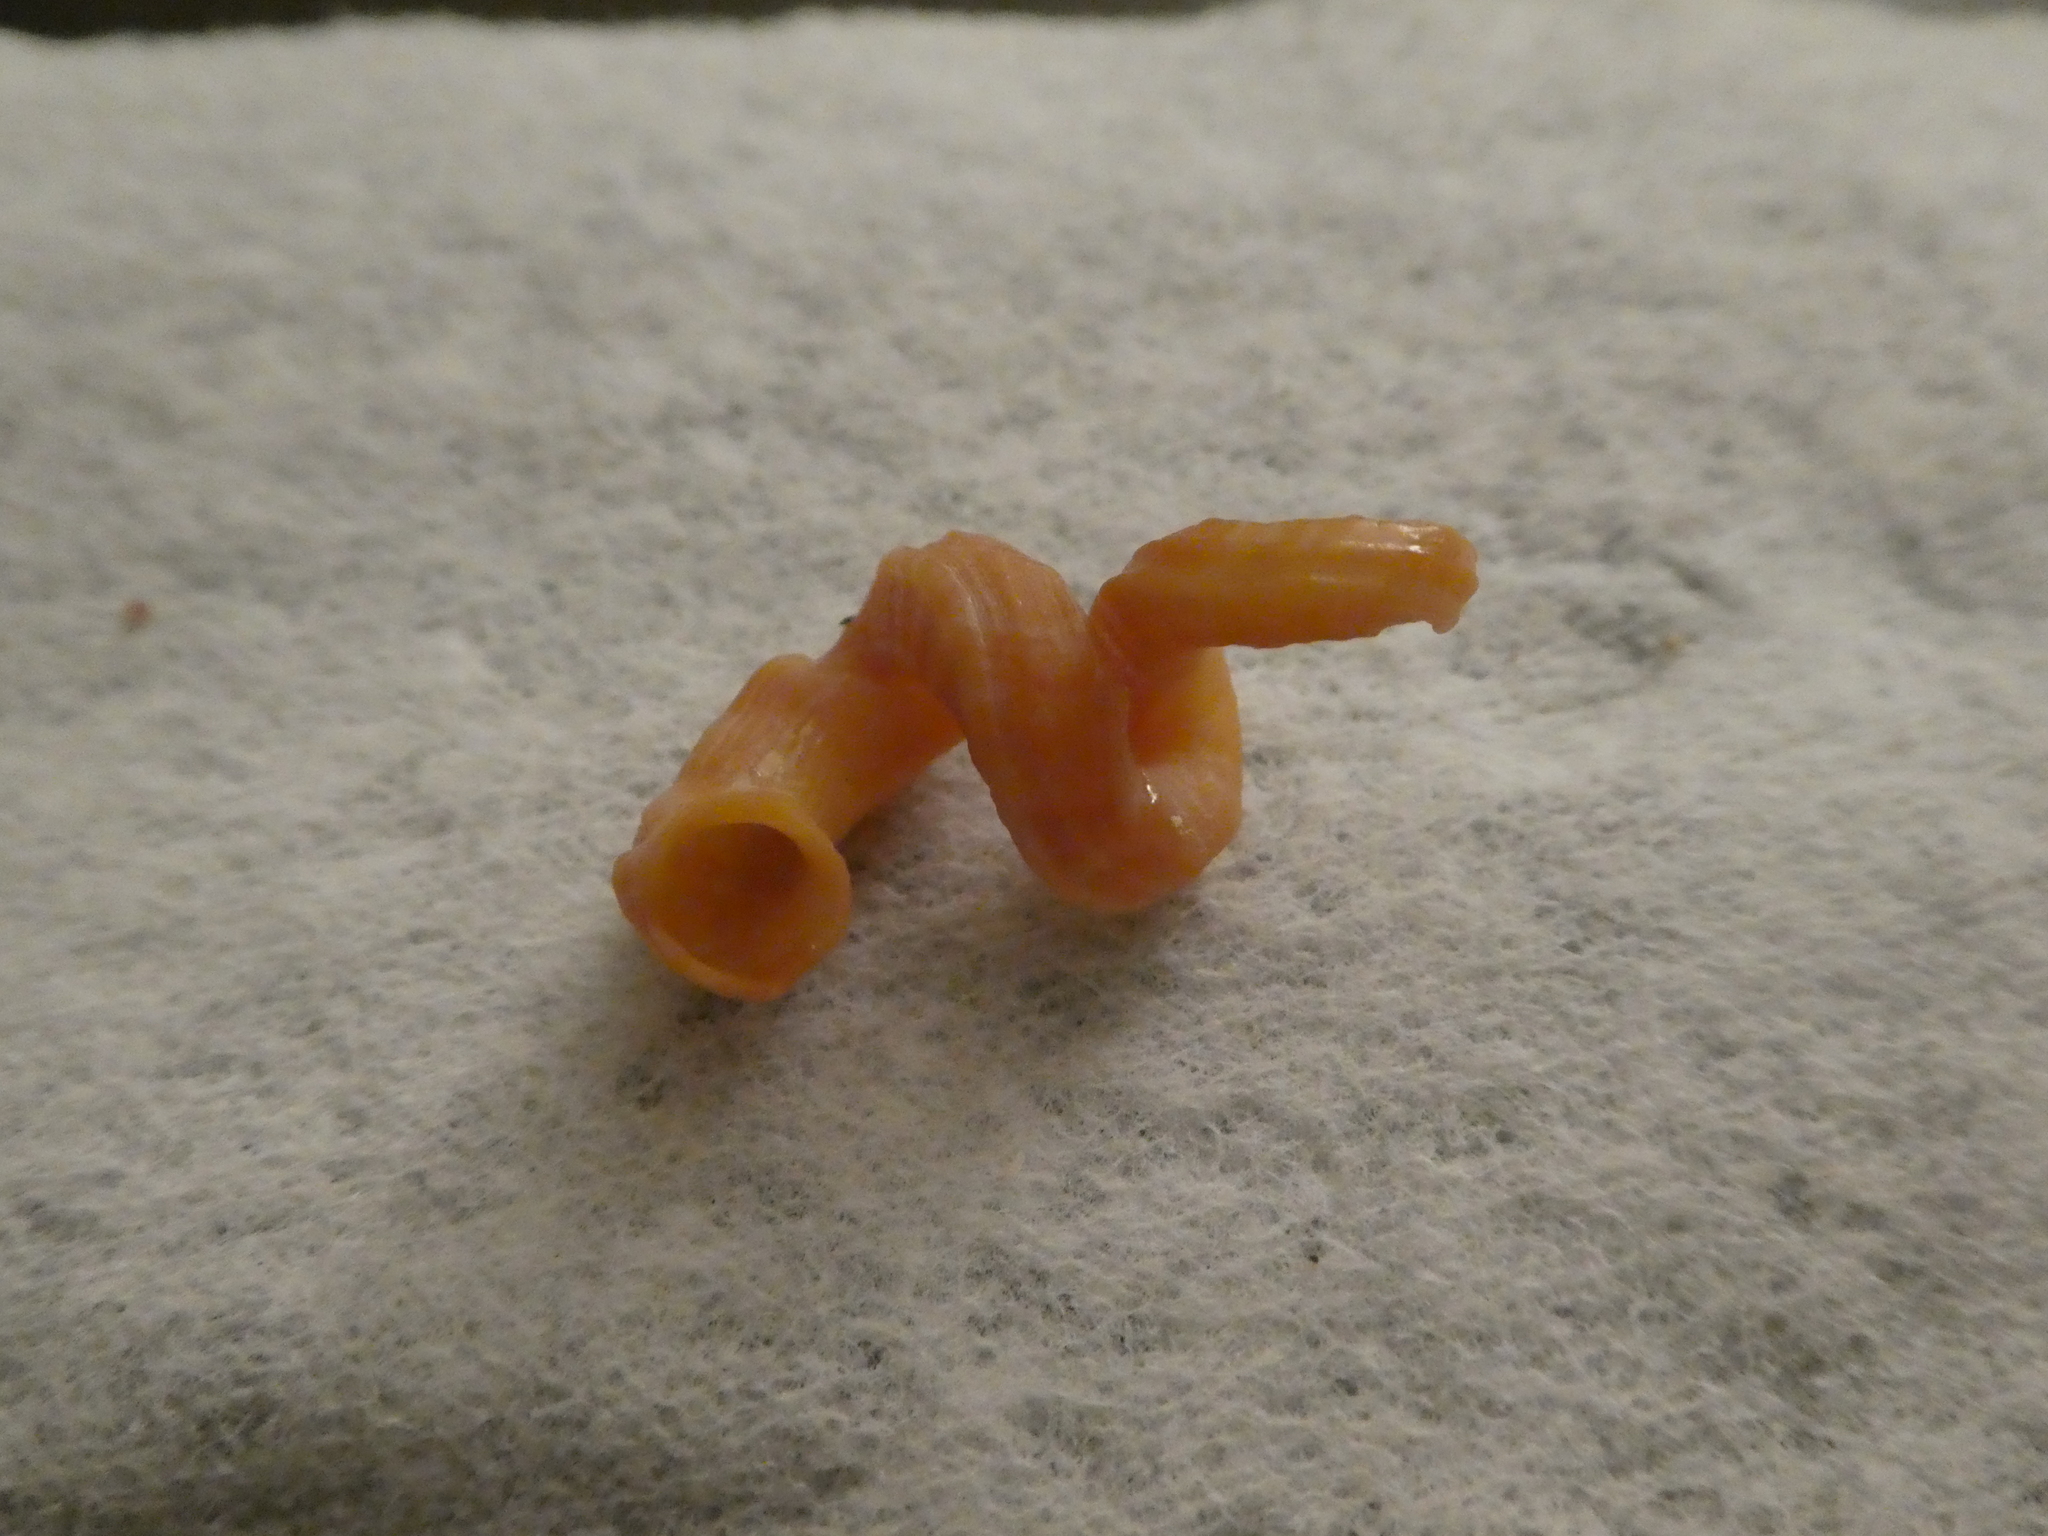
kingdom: Animalia
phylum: Mollusca
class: Gastropoda
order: Littorinimorpha
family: Vermetidae
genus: Thylacodes
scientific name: Thylacodes squamigerus
